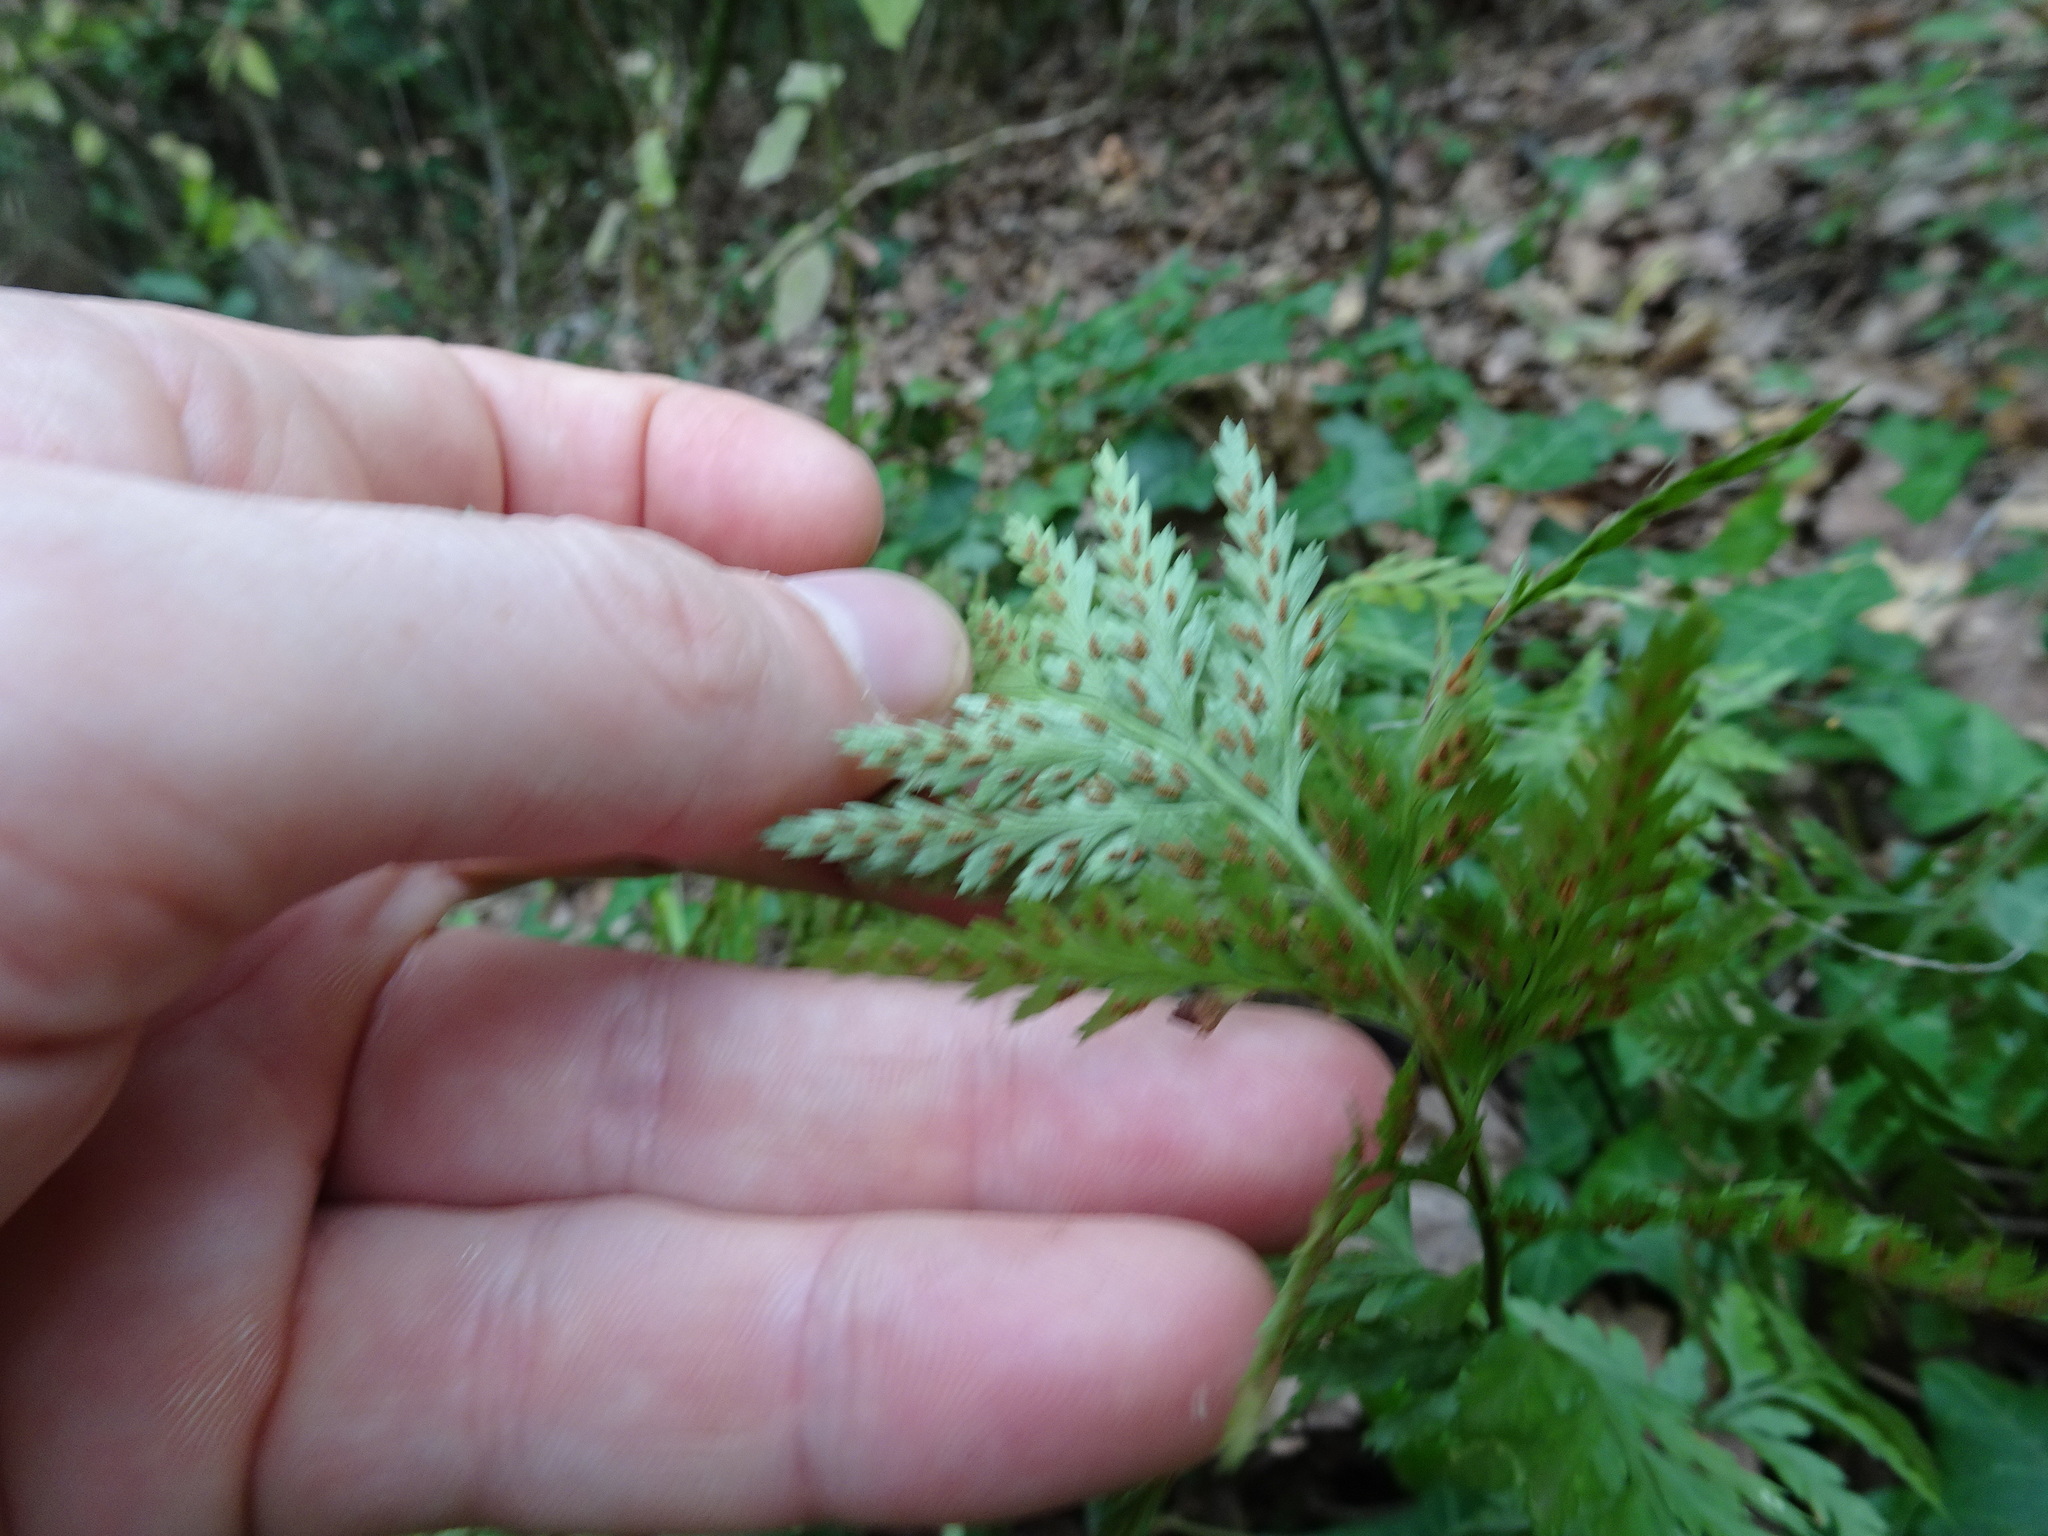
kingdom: Plantae
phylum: Tracheophyta
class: Polypodiopsida
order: Polypodiales
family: Aspleniaceae
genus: Asplenium
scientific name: Asplenium onopteris
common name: Irish spleenwort
